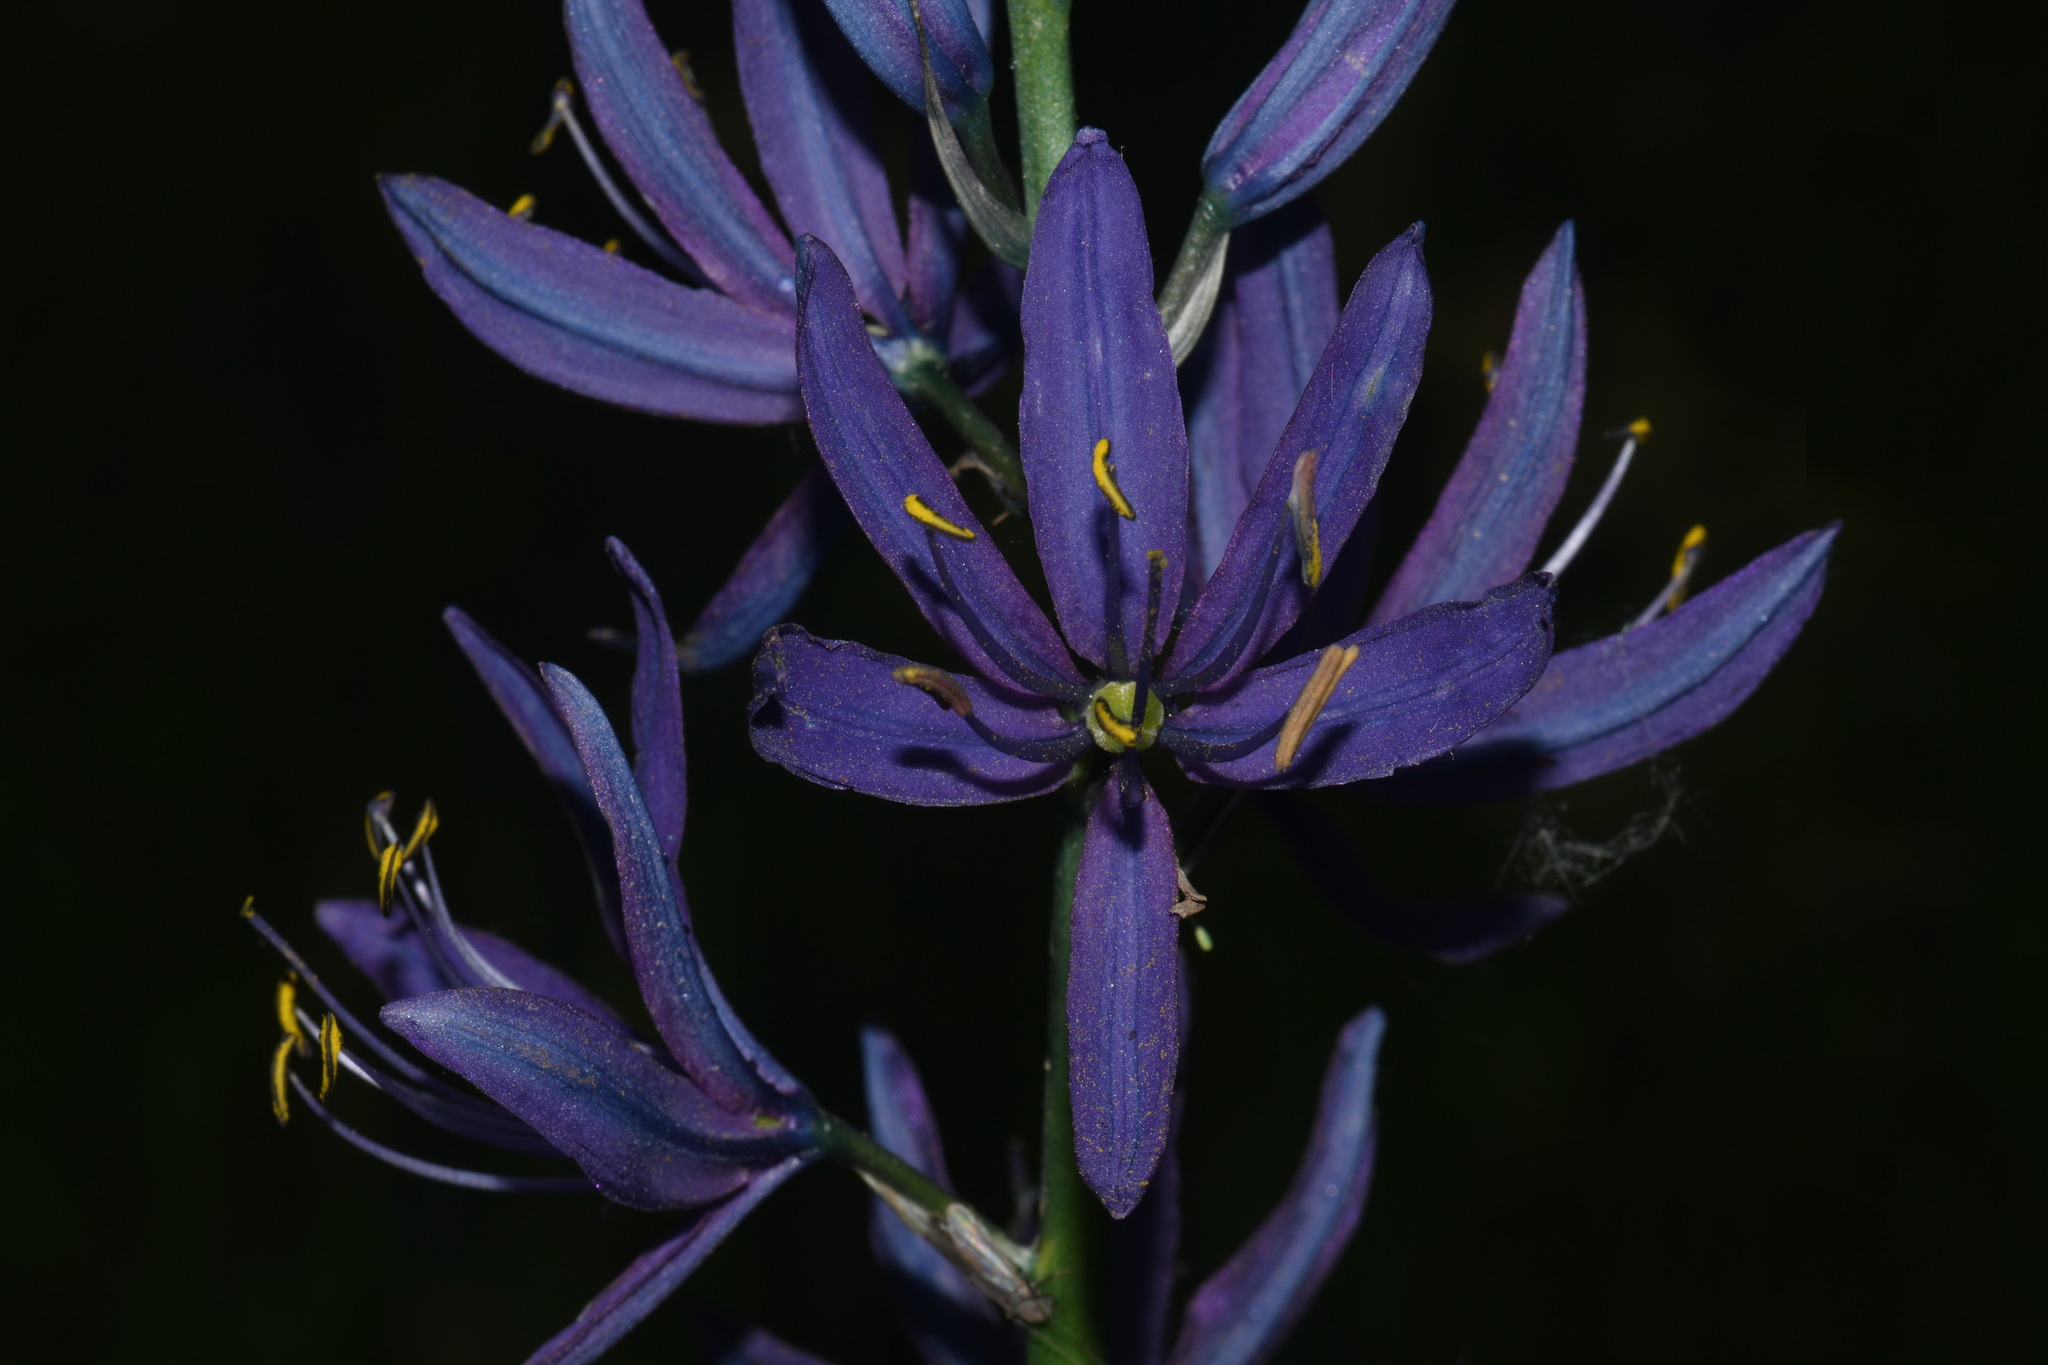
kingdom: Plantae
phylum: Tracheophyta
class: Liliopsida
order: Asparagales
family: Asparagaceae
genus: Camassia
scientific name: Camassia quamash
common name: Common camas
